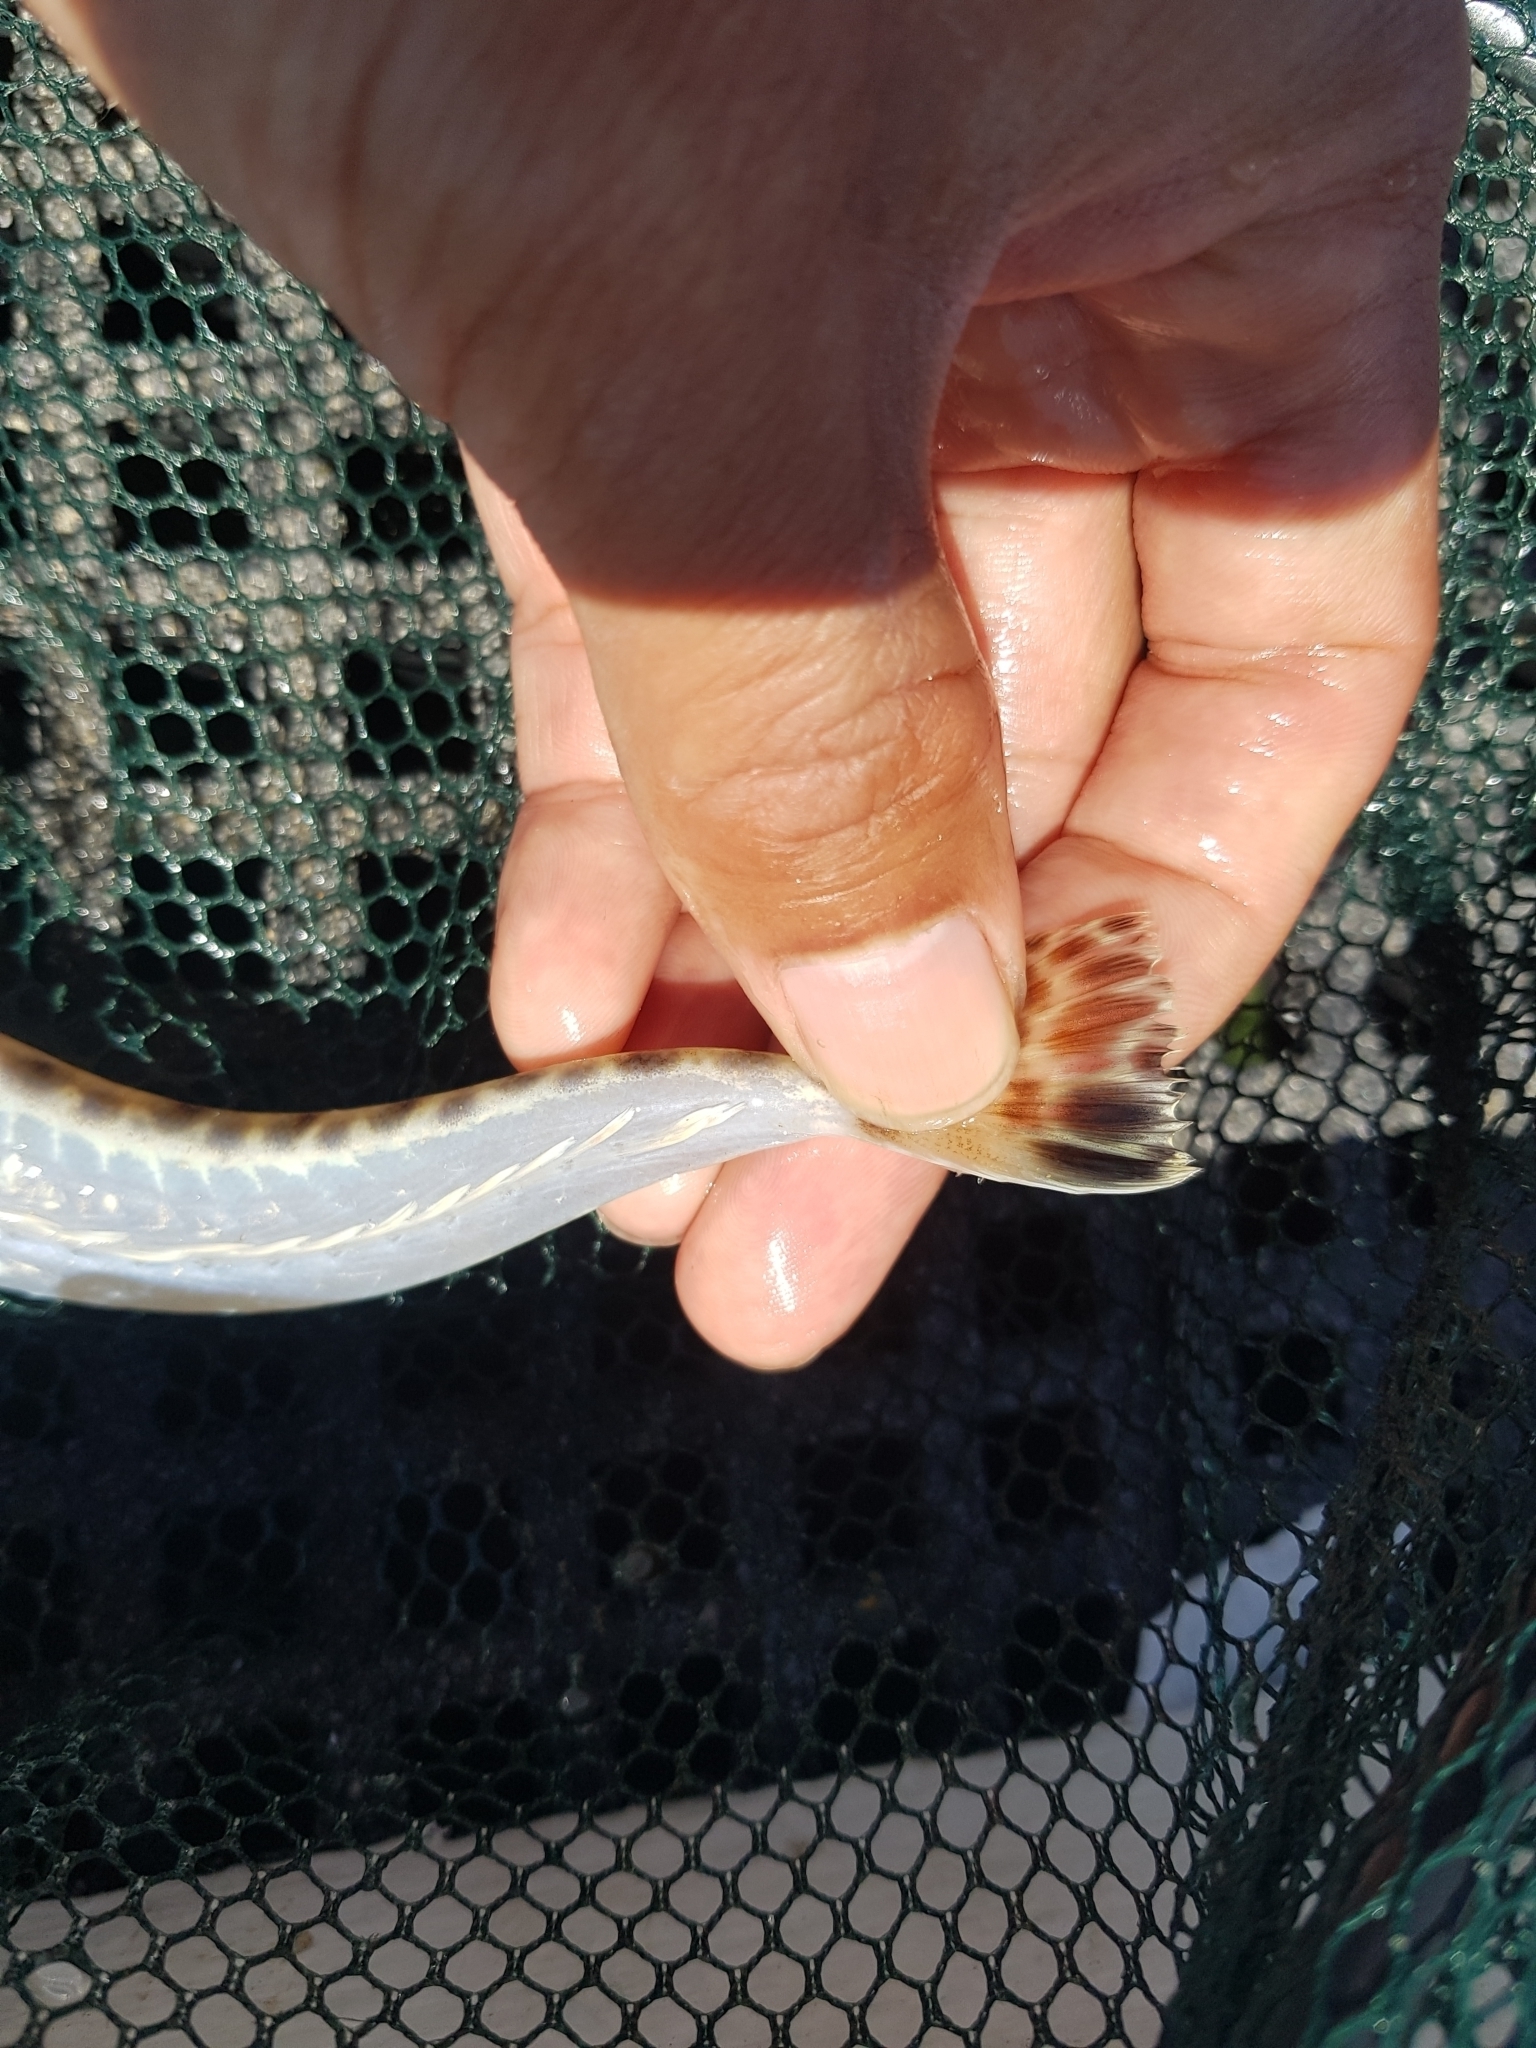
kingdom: Animalia
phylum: Chordata
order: Scorpaeniformes
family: Platycephalidae
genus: Platycephalus
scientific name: Platycephalus bassensis
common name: Sand flathead
